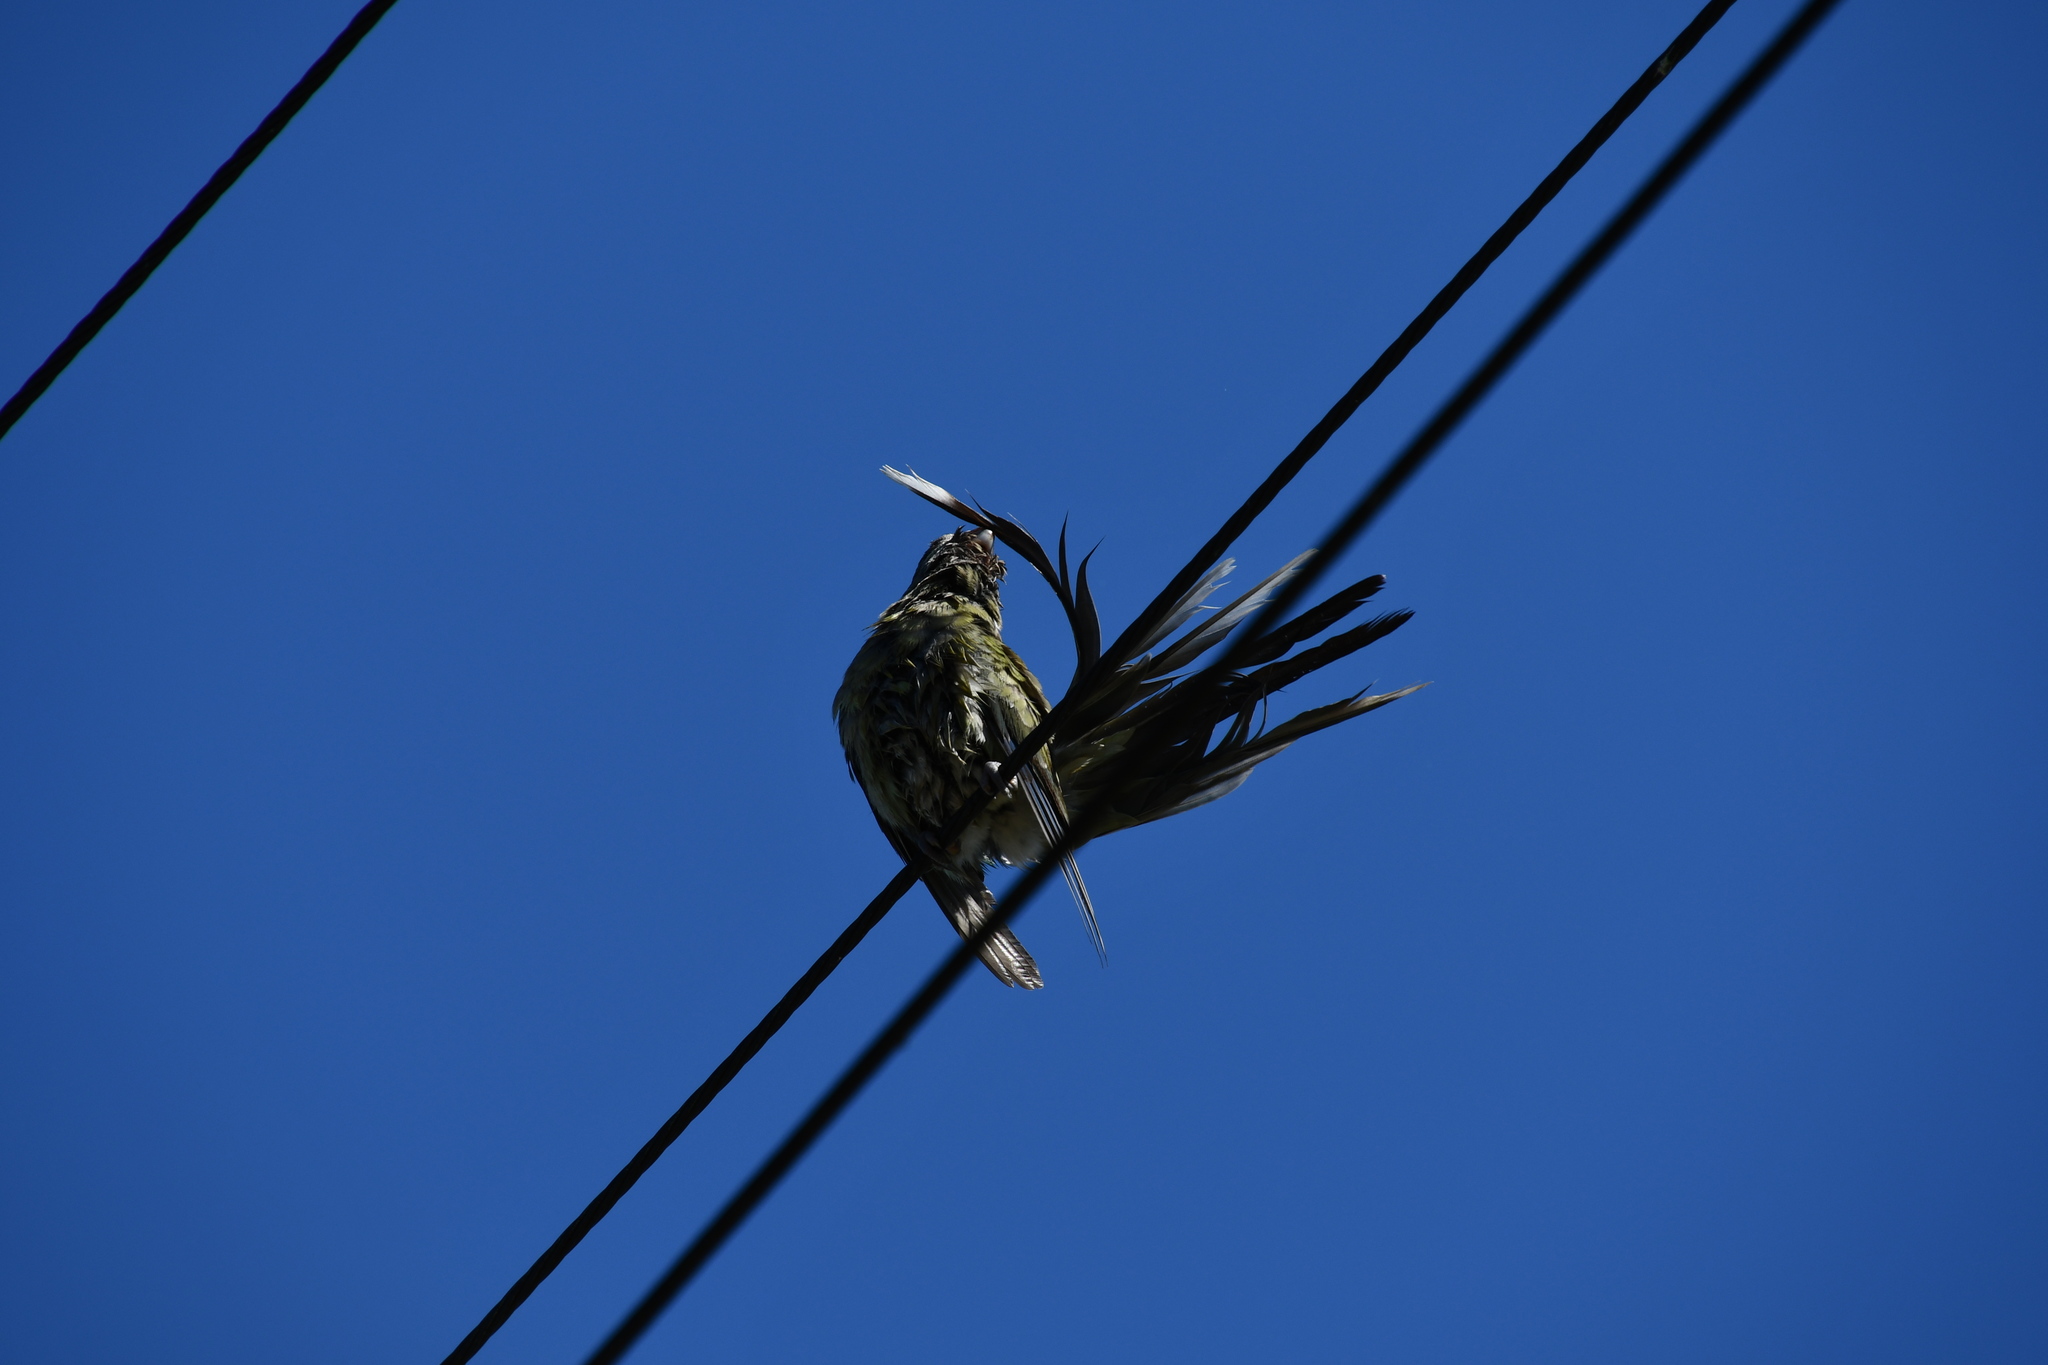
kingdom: Animalia
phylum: Chordata
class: Aves
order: Psittaciformes
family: Psittacidae
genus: Psephotus
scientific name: Psephotus haematonotus
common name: Red-rumped parrot
